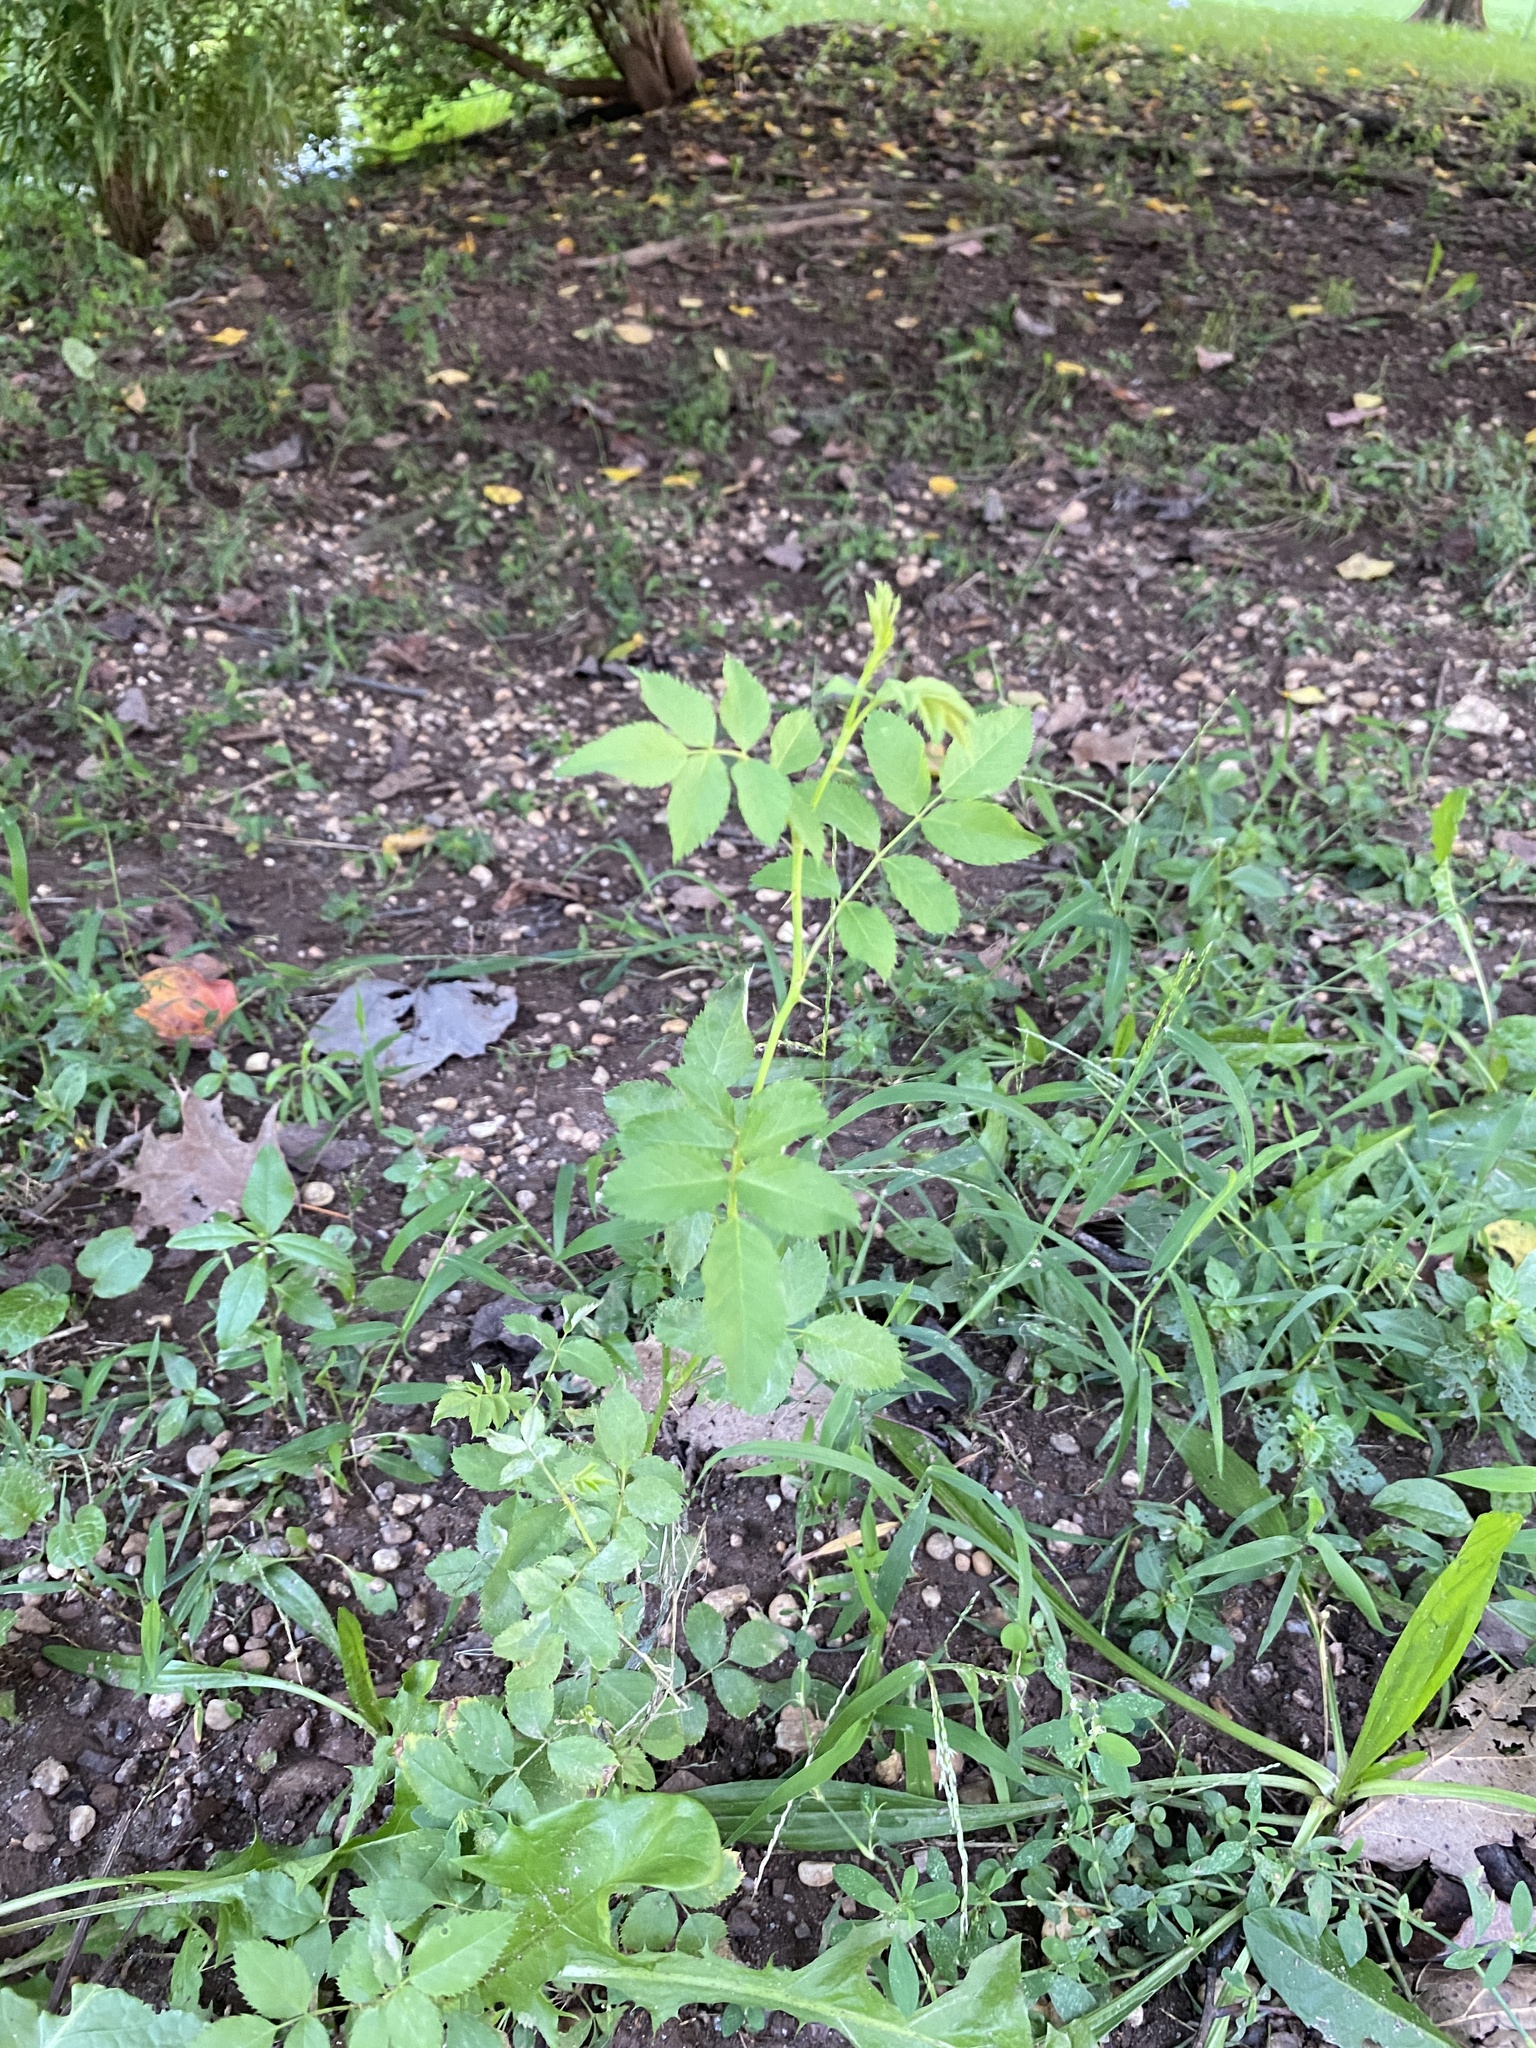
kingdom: Plantae
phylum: Tracheophyta
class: Magnoliopsida
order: Rosales
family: Rosaceae
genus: Rosa
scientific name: Rosa multiflora
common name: Multiflora rose
